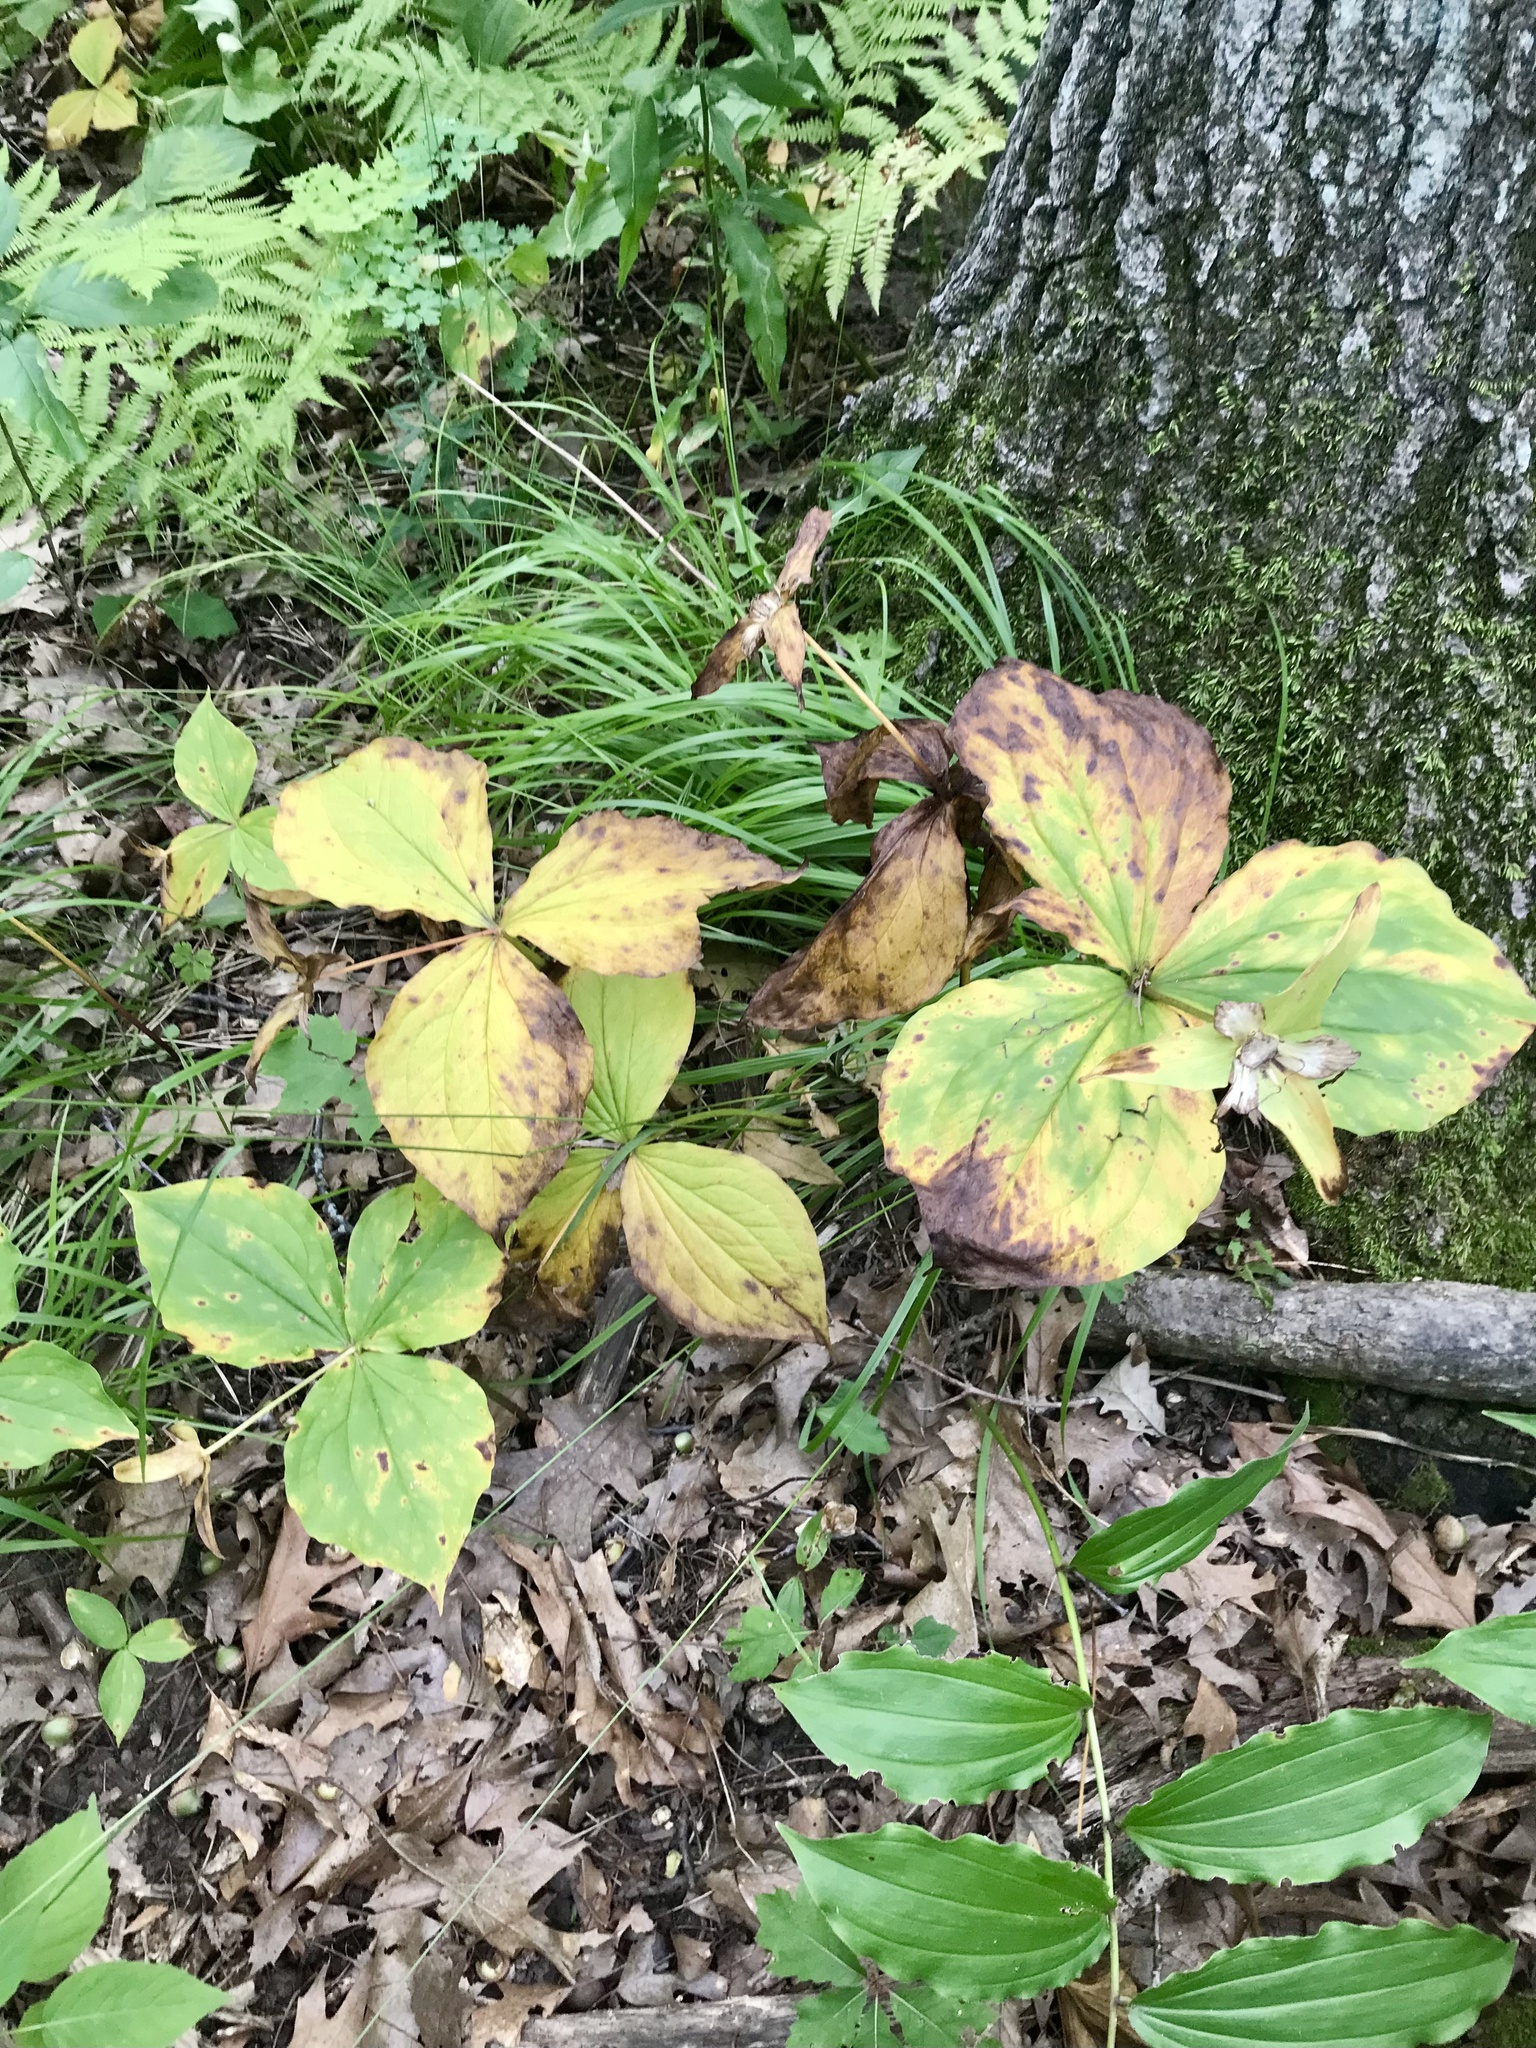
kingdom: Plantae
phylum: Tracheophyta
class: Liliopsida
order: Liliales
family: Melanthiaceae
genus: Trillium
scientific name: Trillium grandiflorum
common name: Great white trillium
